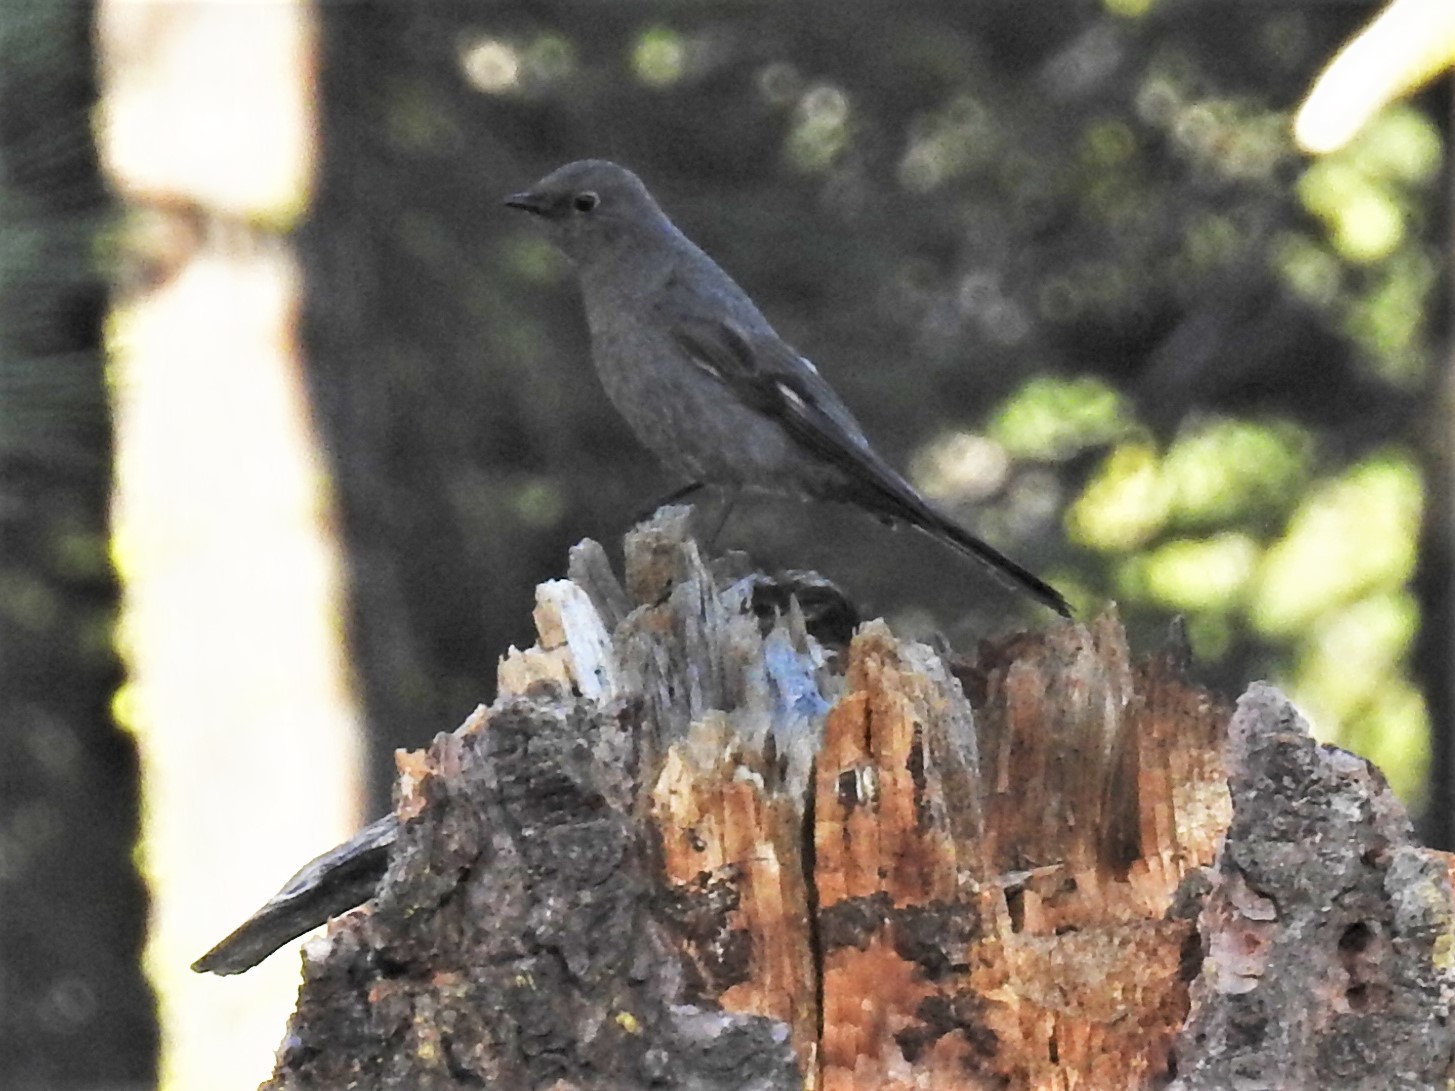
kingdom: Animalia
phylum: Chordata
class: Aves
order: Passeriformes
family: Turdidae
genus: Myadestes
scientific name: Myadestes townsendi
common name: Townsend's solitaire
